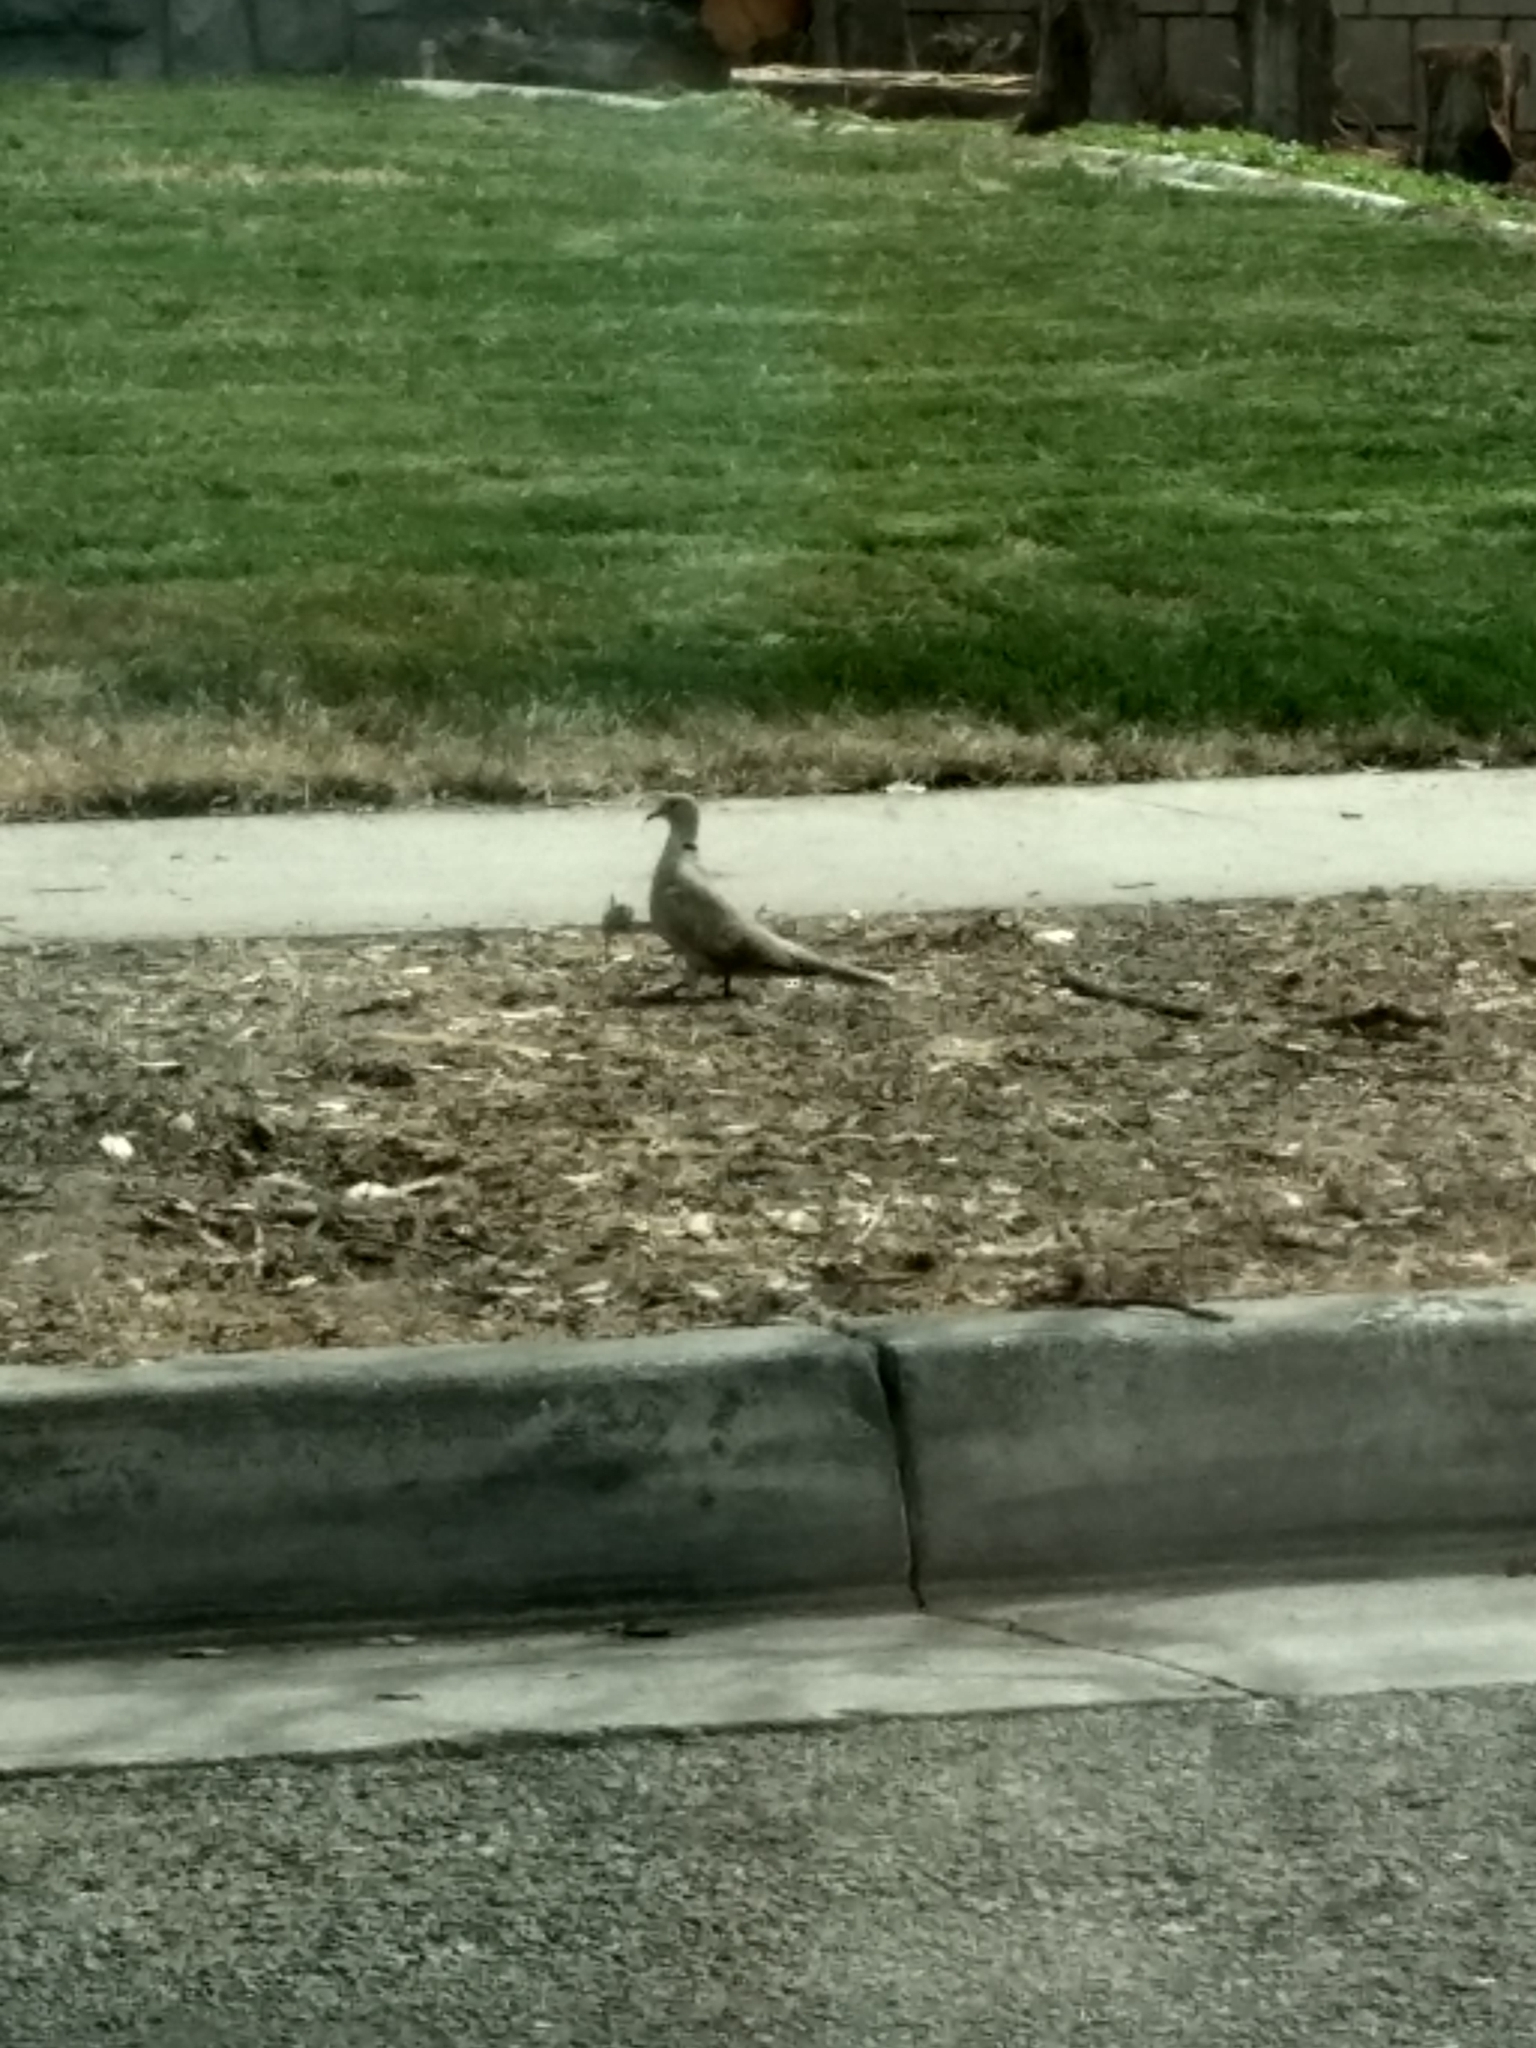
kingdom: Animalia
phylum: Chordata
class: Aves
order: Columbiformes
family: Columbidae
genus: Streptopelia
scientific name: Streptopelia decaocto
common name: Eurasian collared dove
